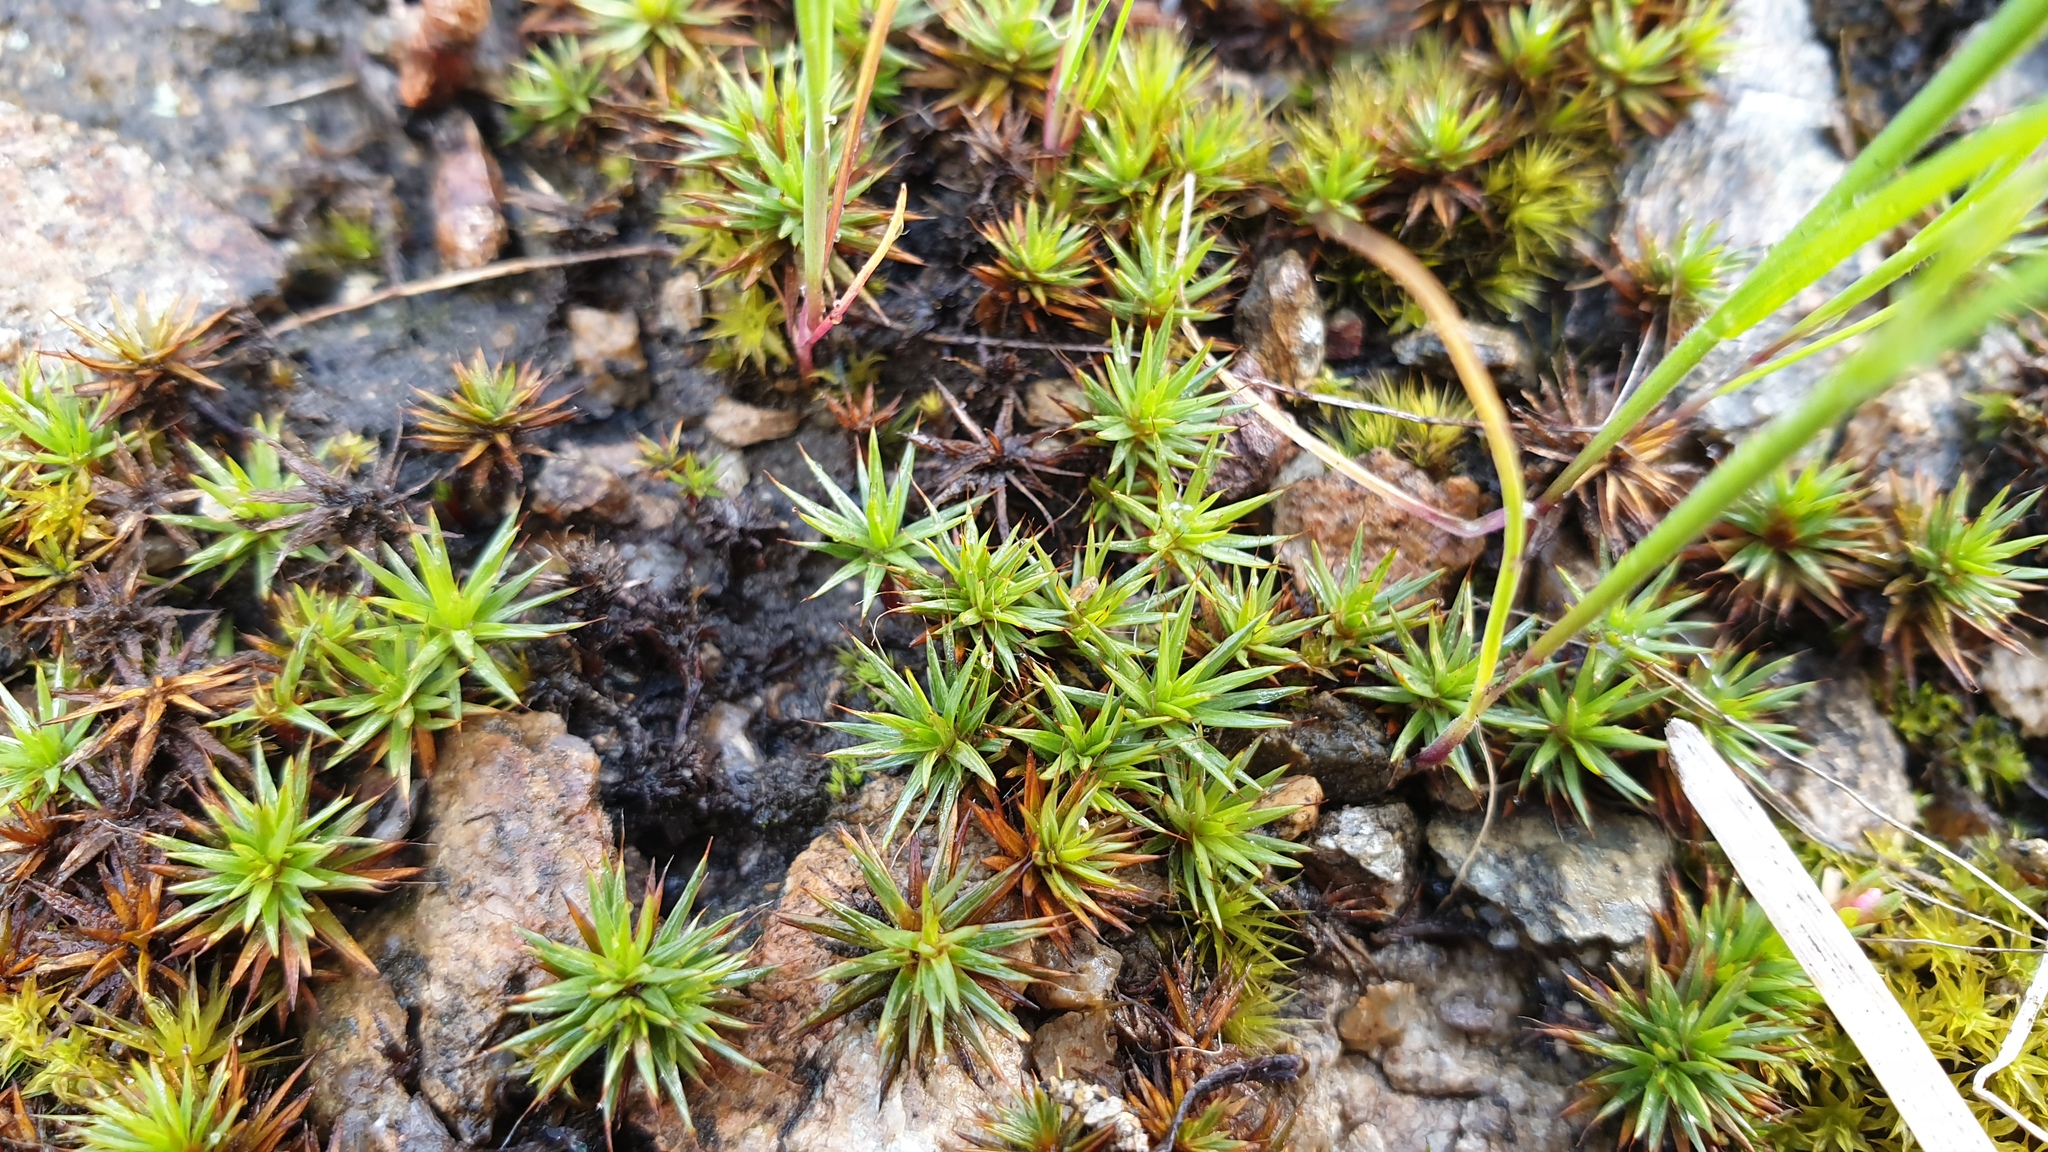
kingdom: Plantae
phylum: Bryophyta
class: Polytrichopsida
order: Polytrichales
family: Polytrichaceae
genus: Polytrichum
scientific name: Polytrichum juniperinum
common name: Juniper haircap moss
